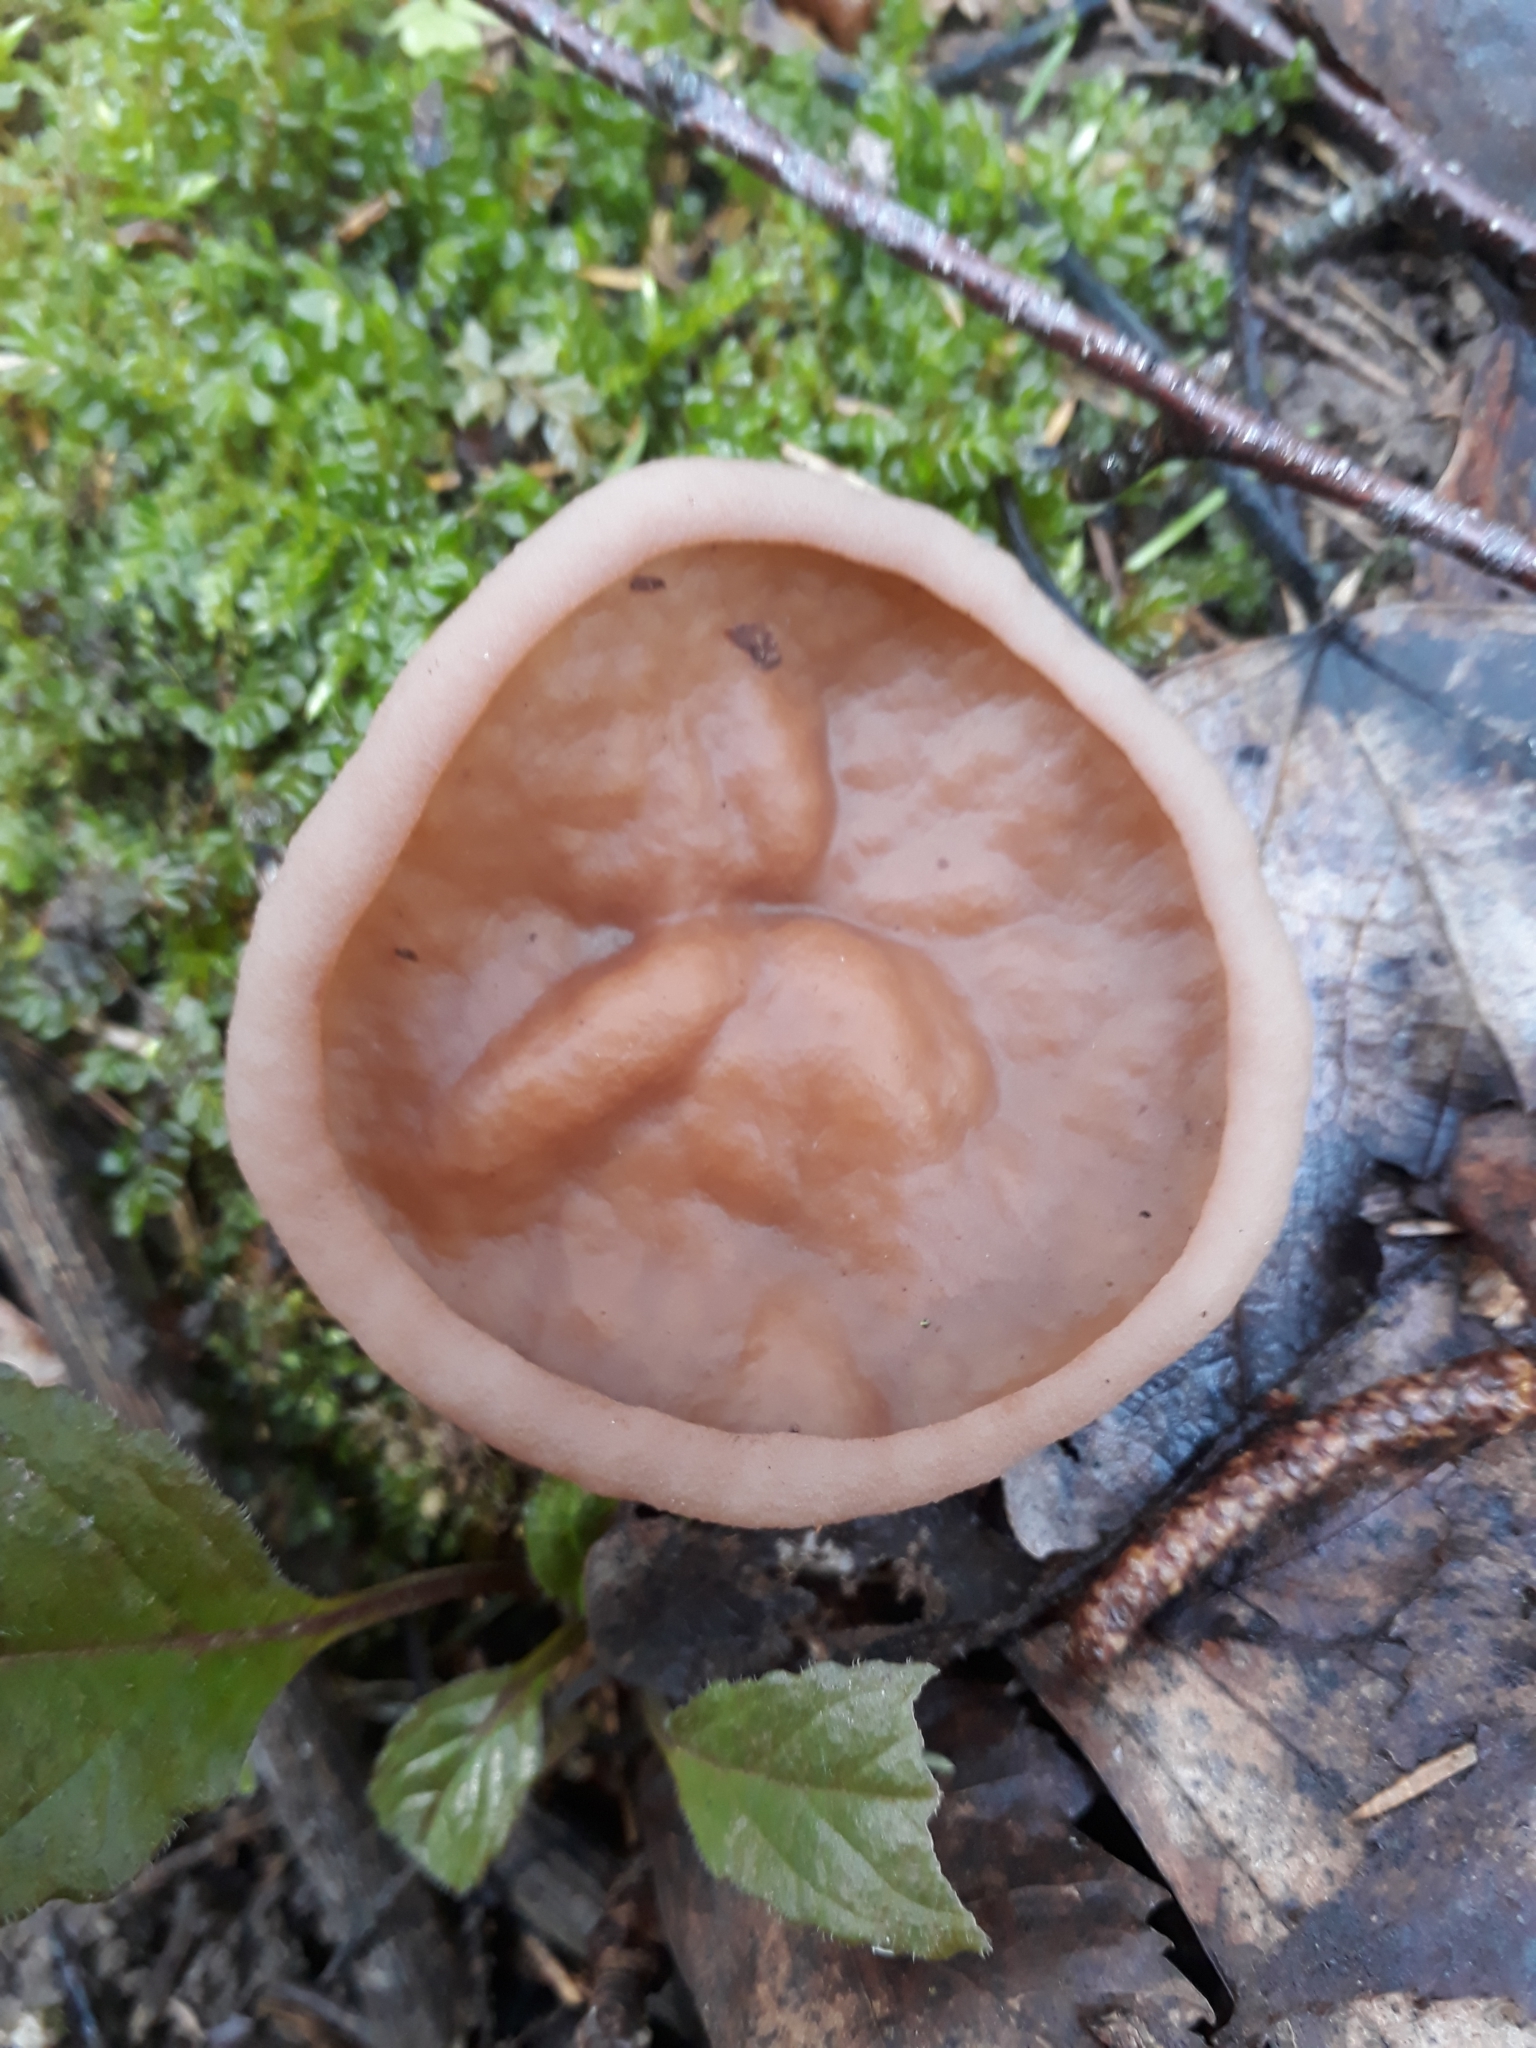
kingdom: Fungi
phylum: Ascomycota
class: Pezizomycetes
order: Pezizales
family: Discinaceae
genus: Discina
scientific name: Discina
